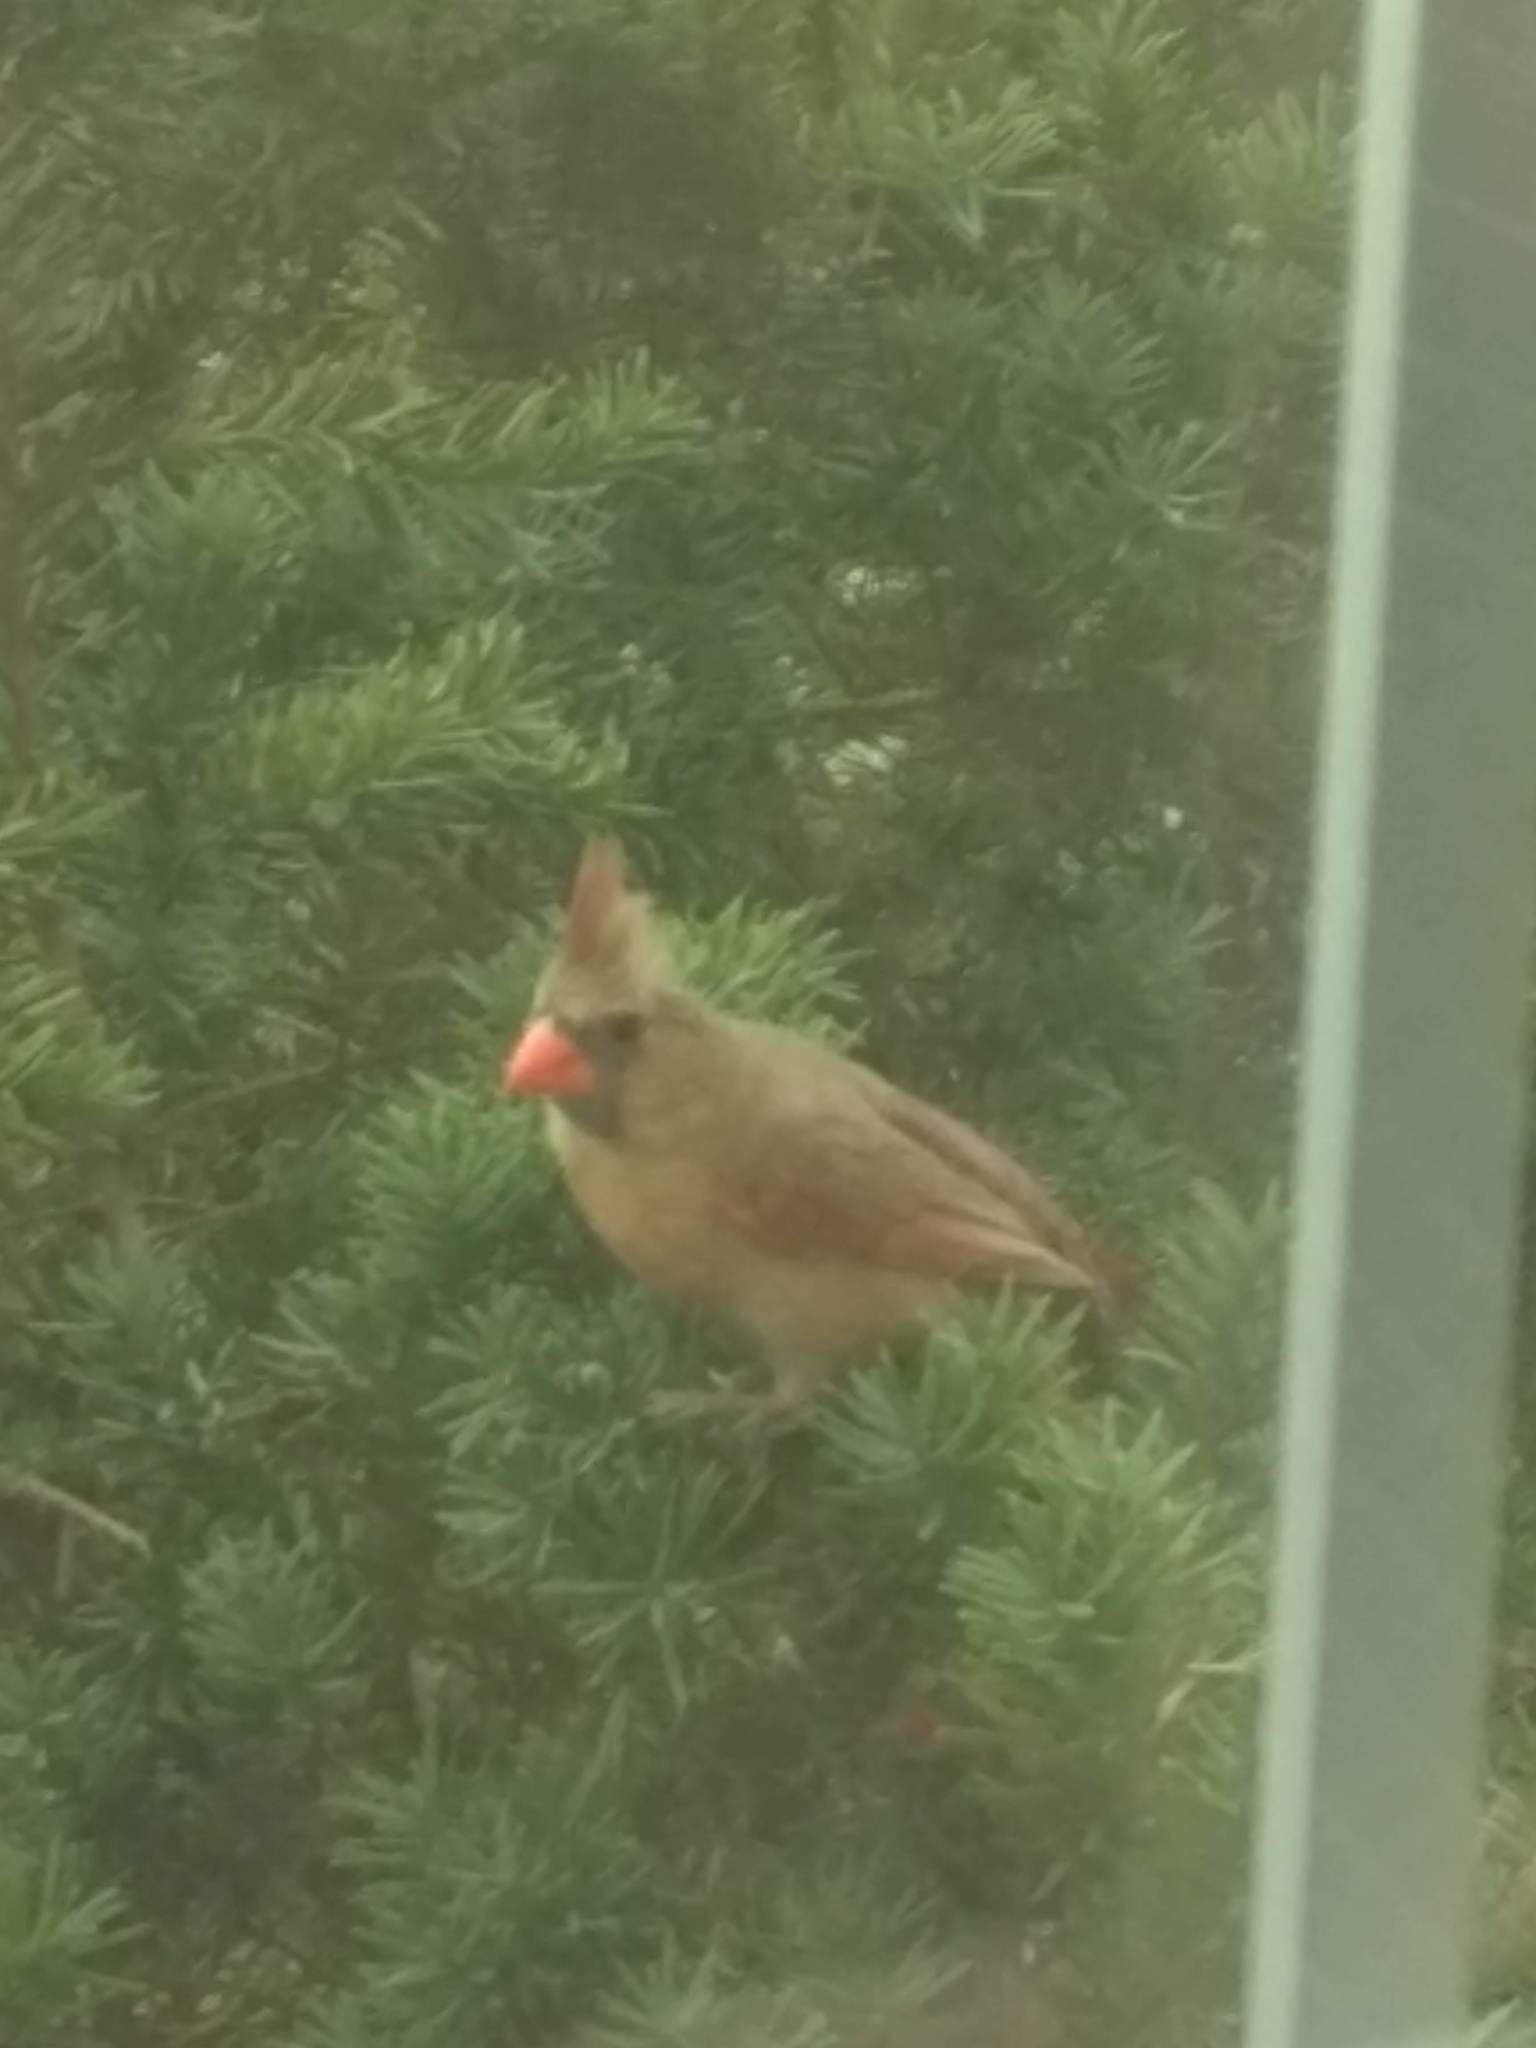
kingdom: Animalia
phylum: Chordata
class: Aves
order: Passeriformes
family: Cardinalidae
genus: Cardinalis
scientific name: Cardinalis cardinalis
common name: Northern cardinal
